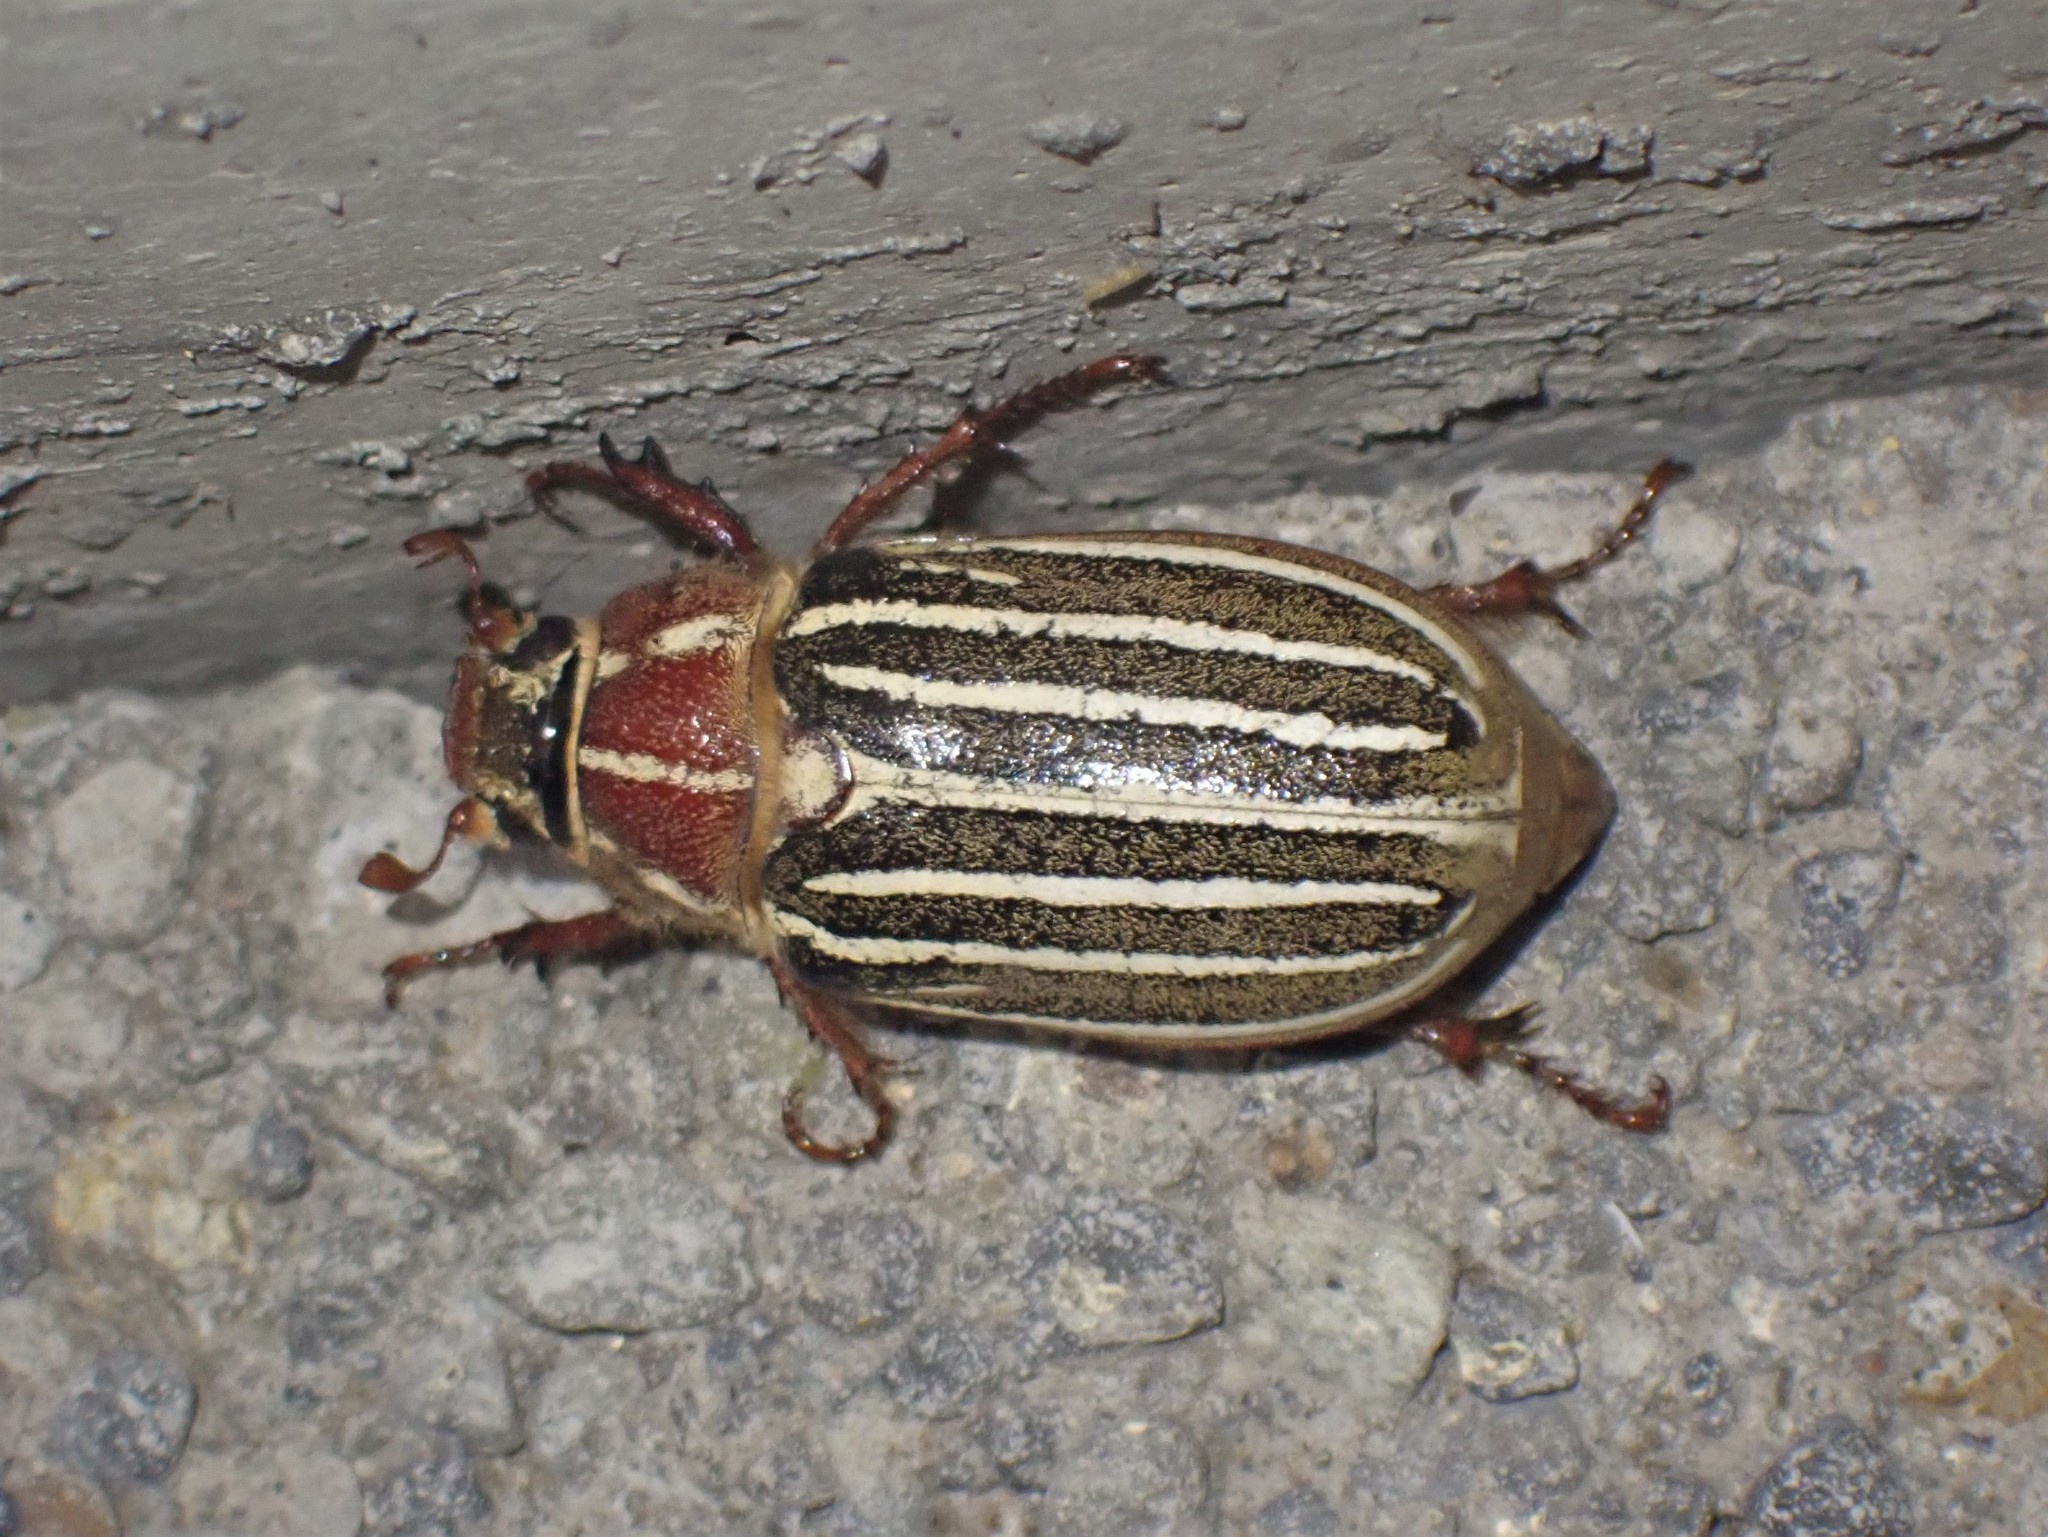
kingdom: Animalia
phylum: Arthropoda
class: Insecta
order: Coleoptera
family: Scarabaeidae
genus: Polyphylla
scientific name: Polyphylla crinita
